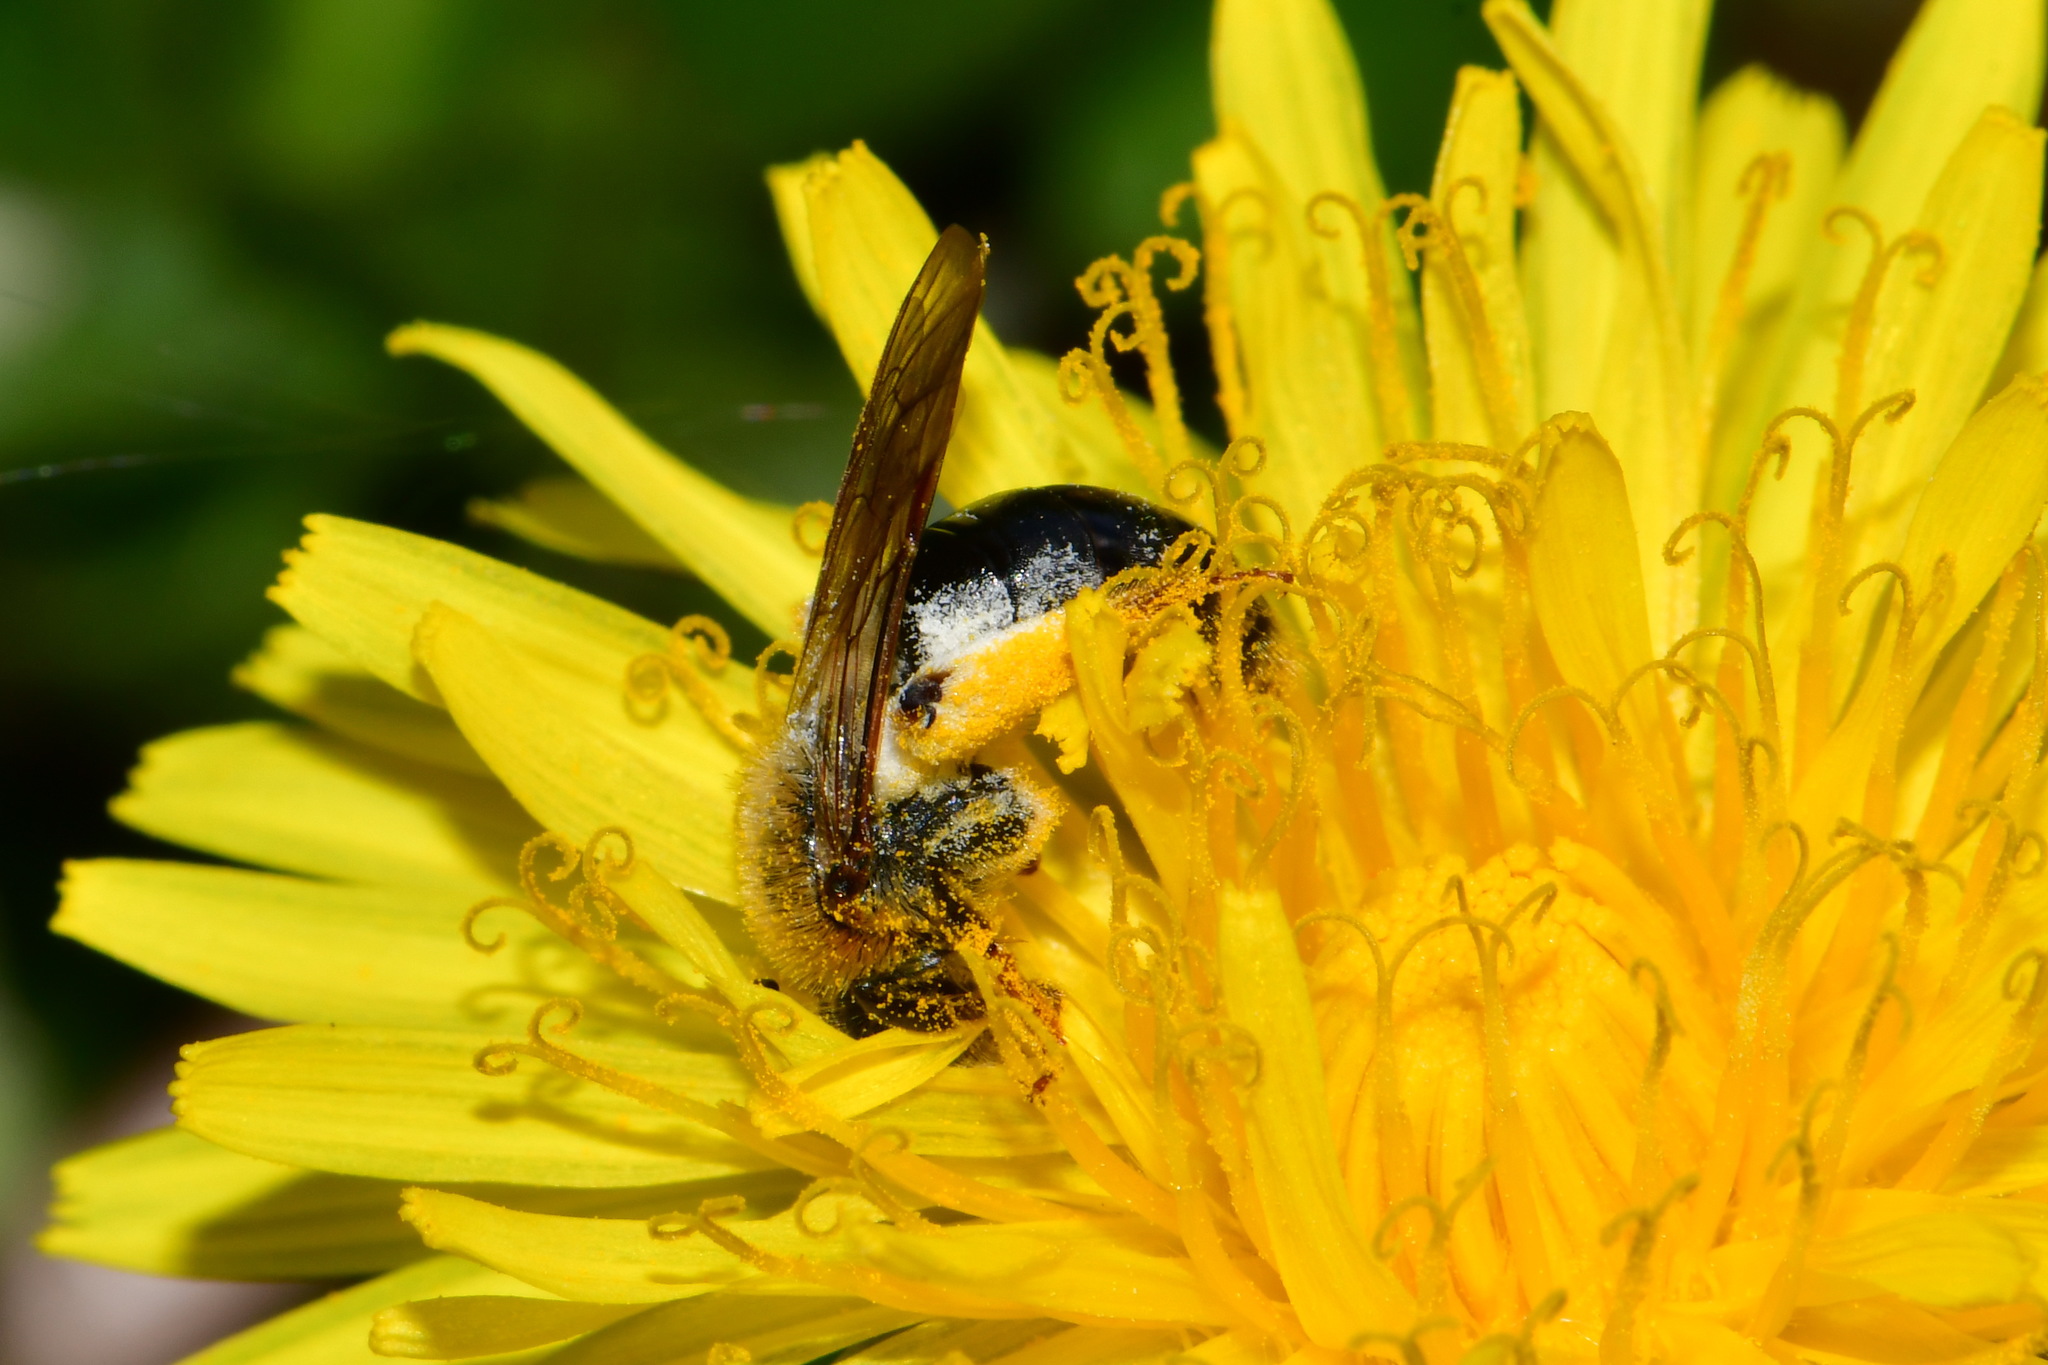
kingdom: Animalia
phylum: Arthropoda
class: Insecta
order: Hymenoptera
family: Andrenidae
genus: Andrena
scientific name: Andrena haemorrhoa
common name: Early mining bee
